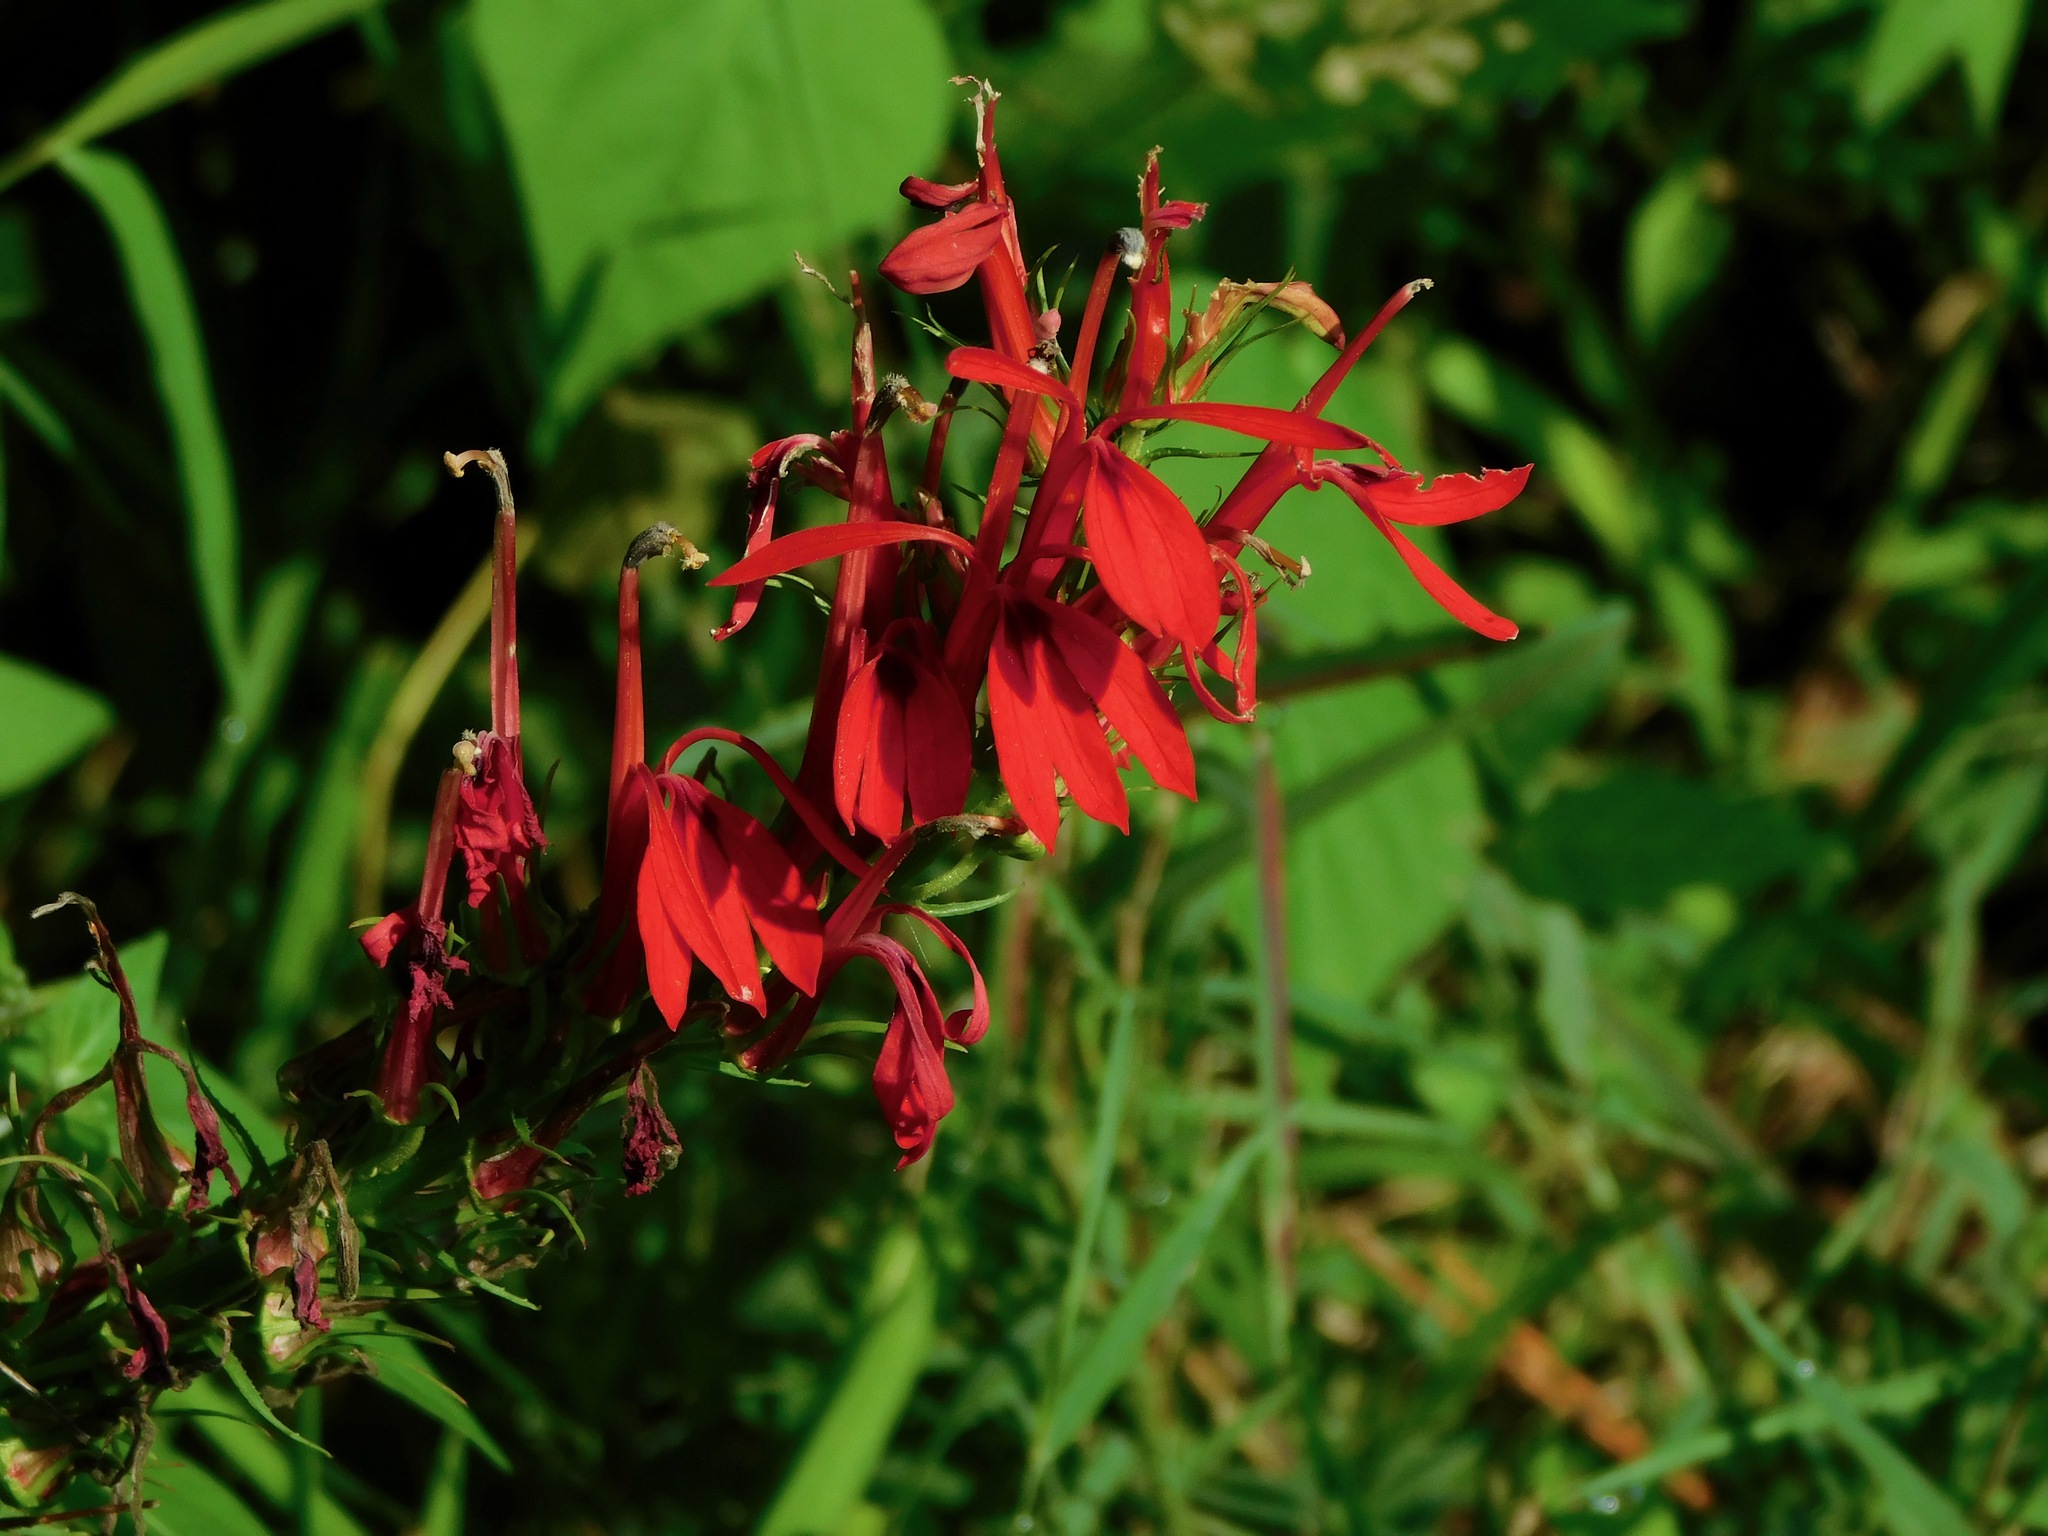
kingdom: Plantae
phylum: Tracheophyta
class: Magnoliopsida
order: Asterales
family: Campanulaceae
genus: Lobelia
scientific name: Lobelia cardinalis
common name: Cardinal flower
